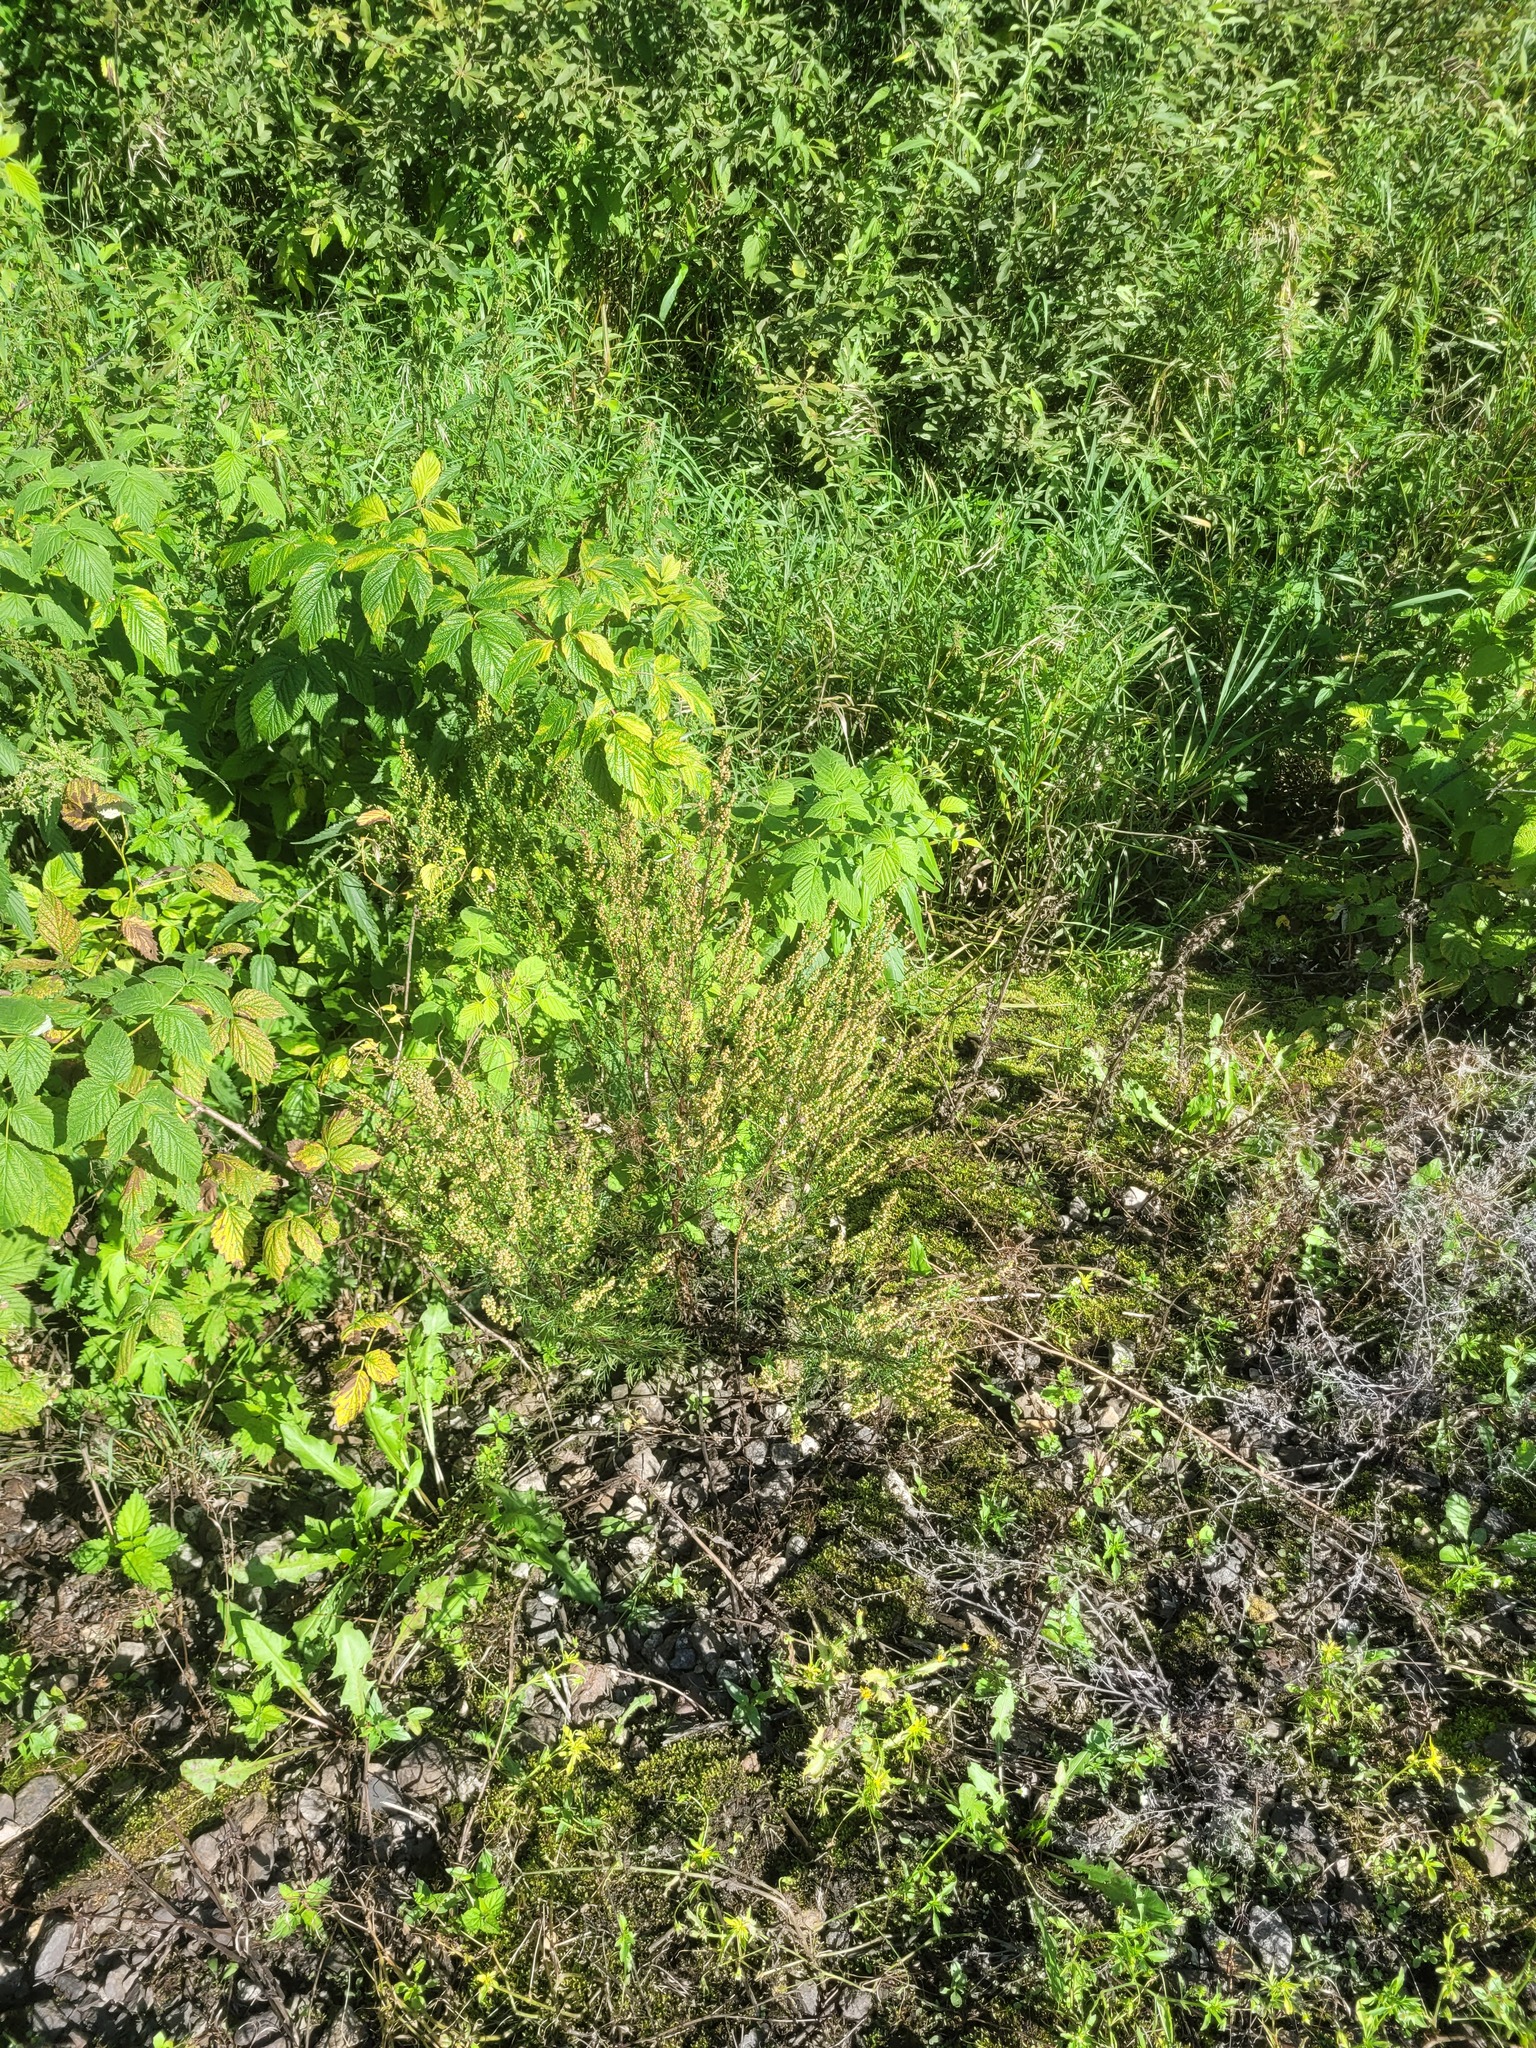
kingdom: Plantae
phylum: Tracheophyta
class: Magnoliopsida
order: Asterales
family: Asteraceae
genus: Artemisia
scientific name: Artemisia campestris
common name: Field wormwood
